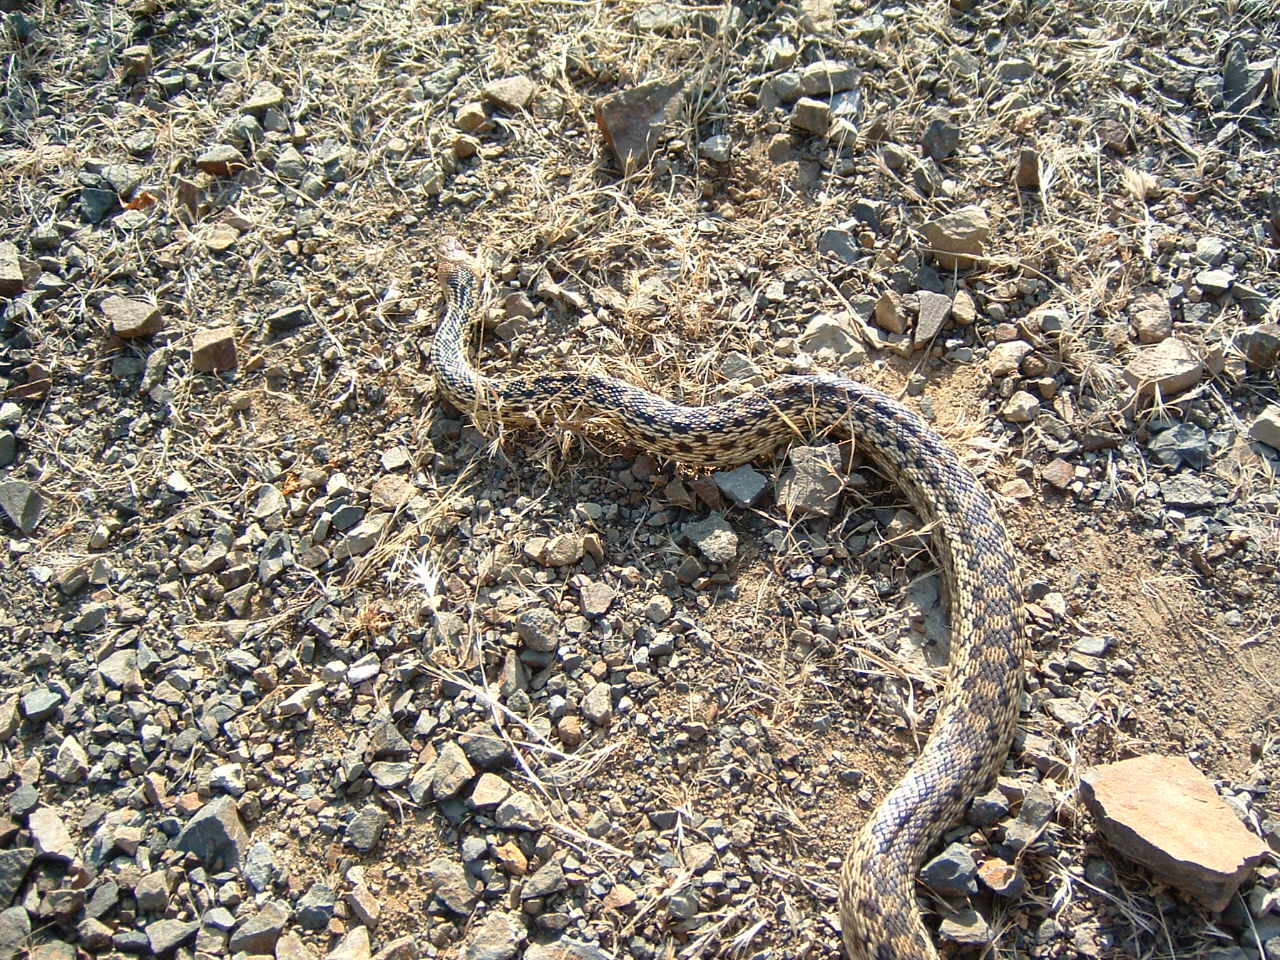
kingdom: Animalia
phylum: Chordata
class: Squamata
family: Colubridae
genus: Pituophis
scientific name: Pituophis catenifer
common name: Gopher snake
